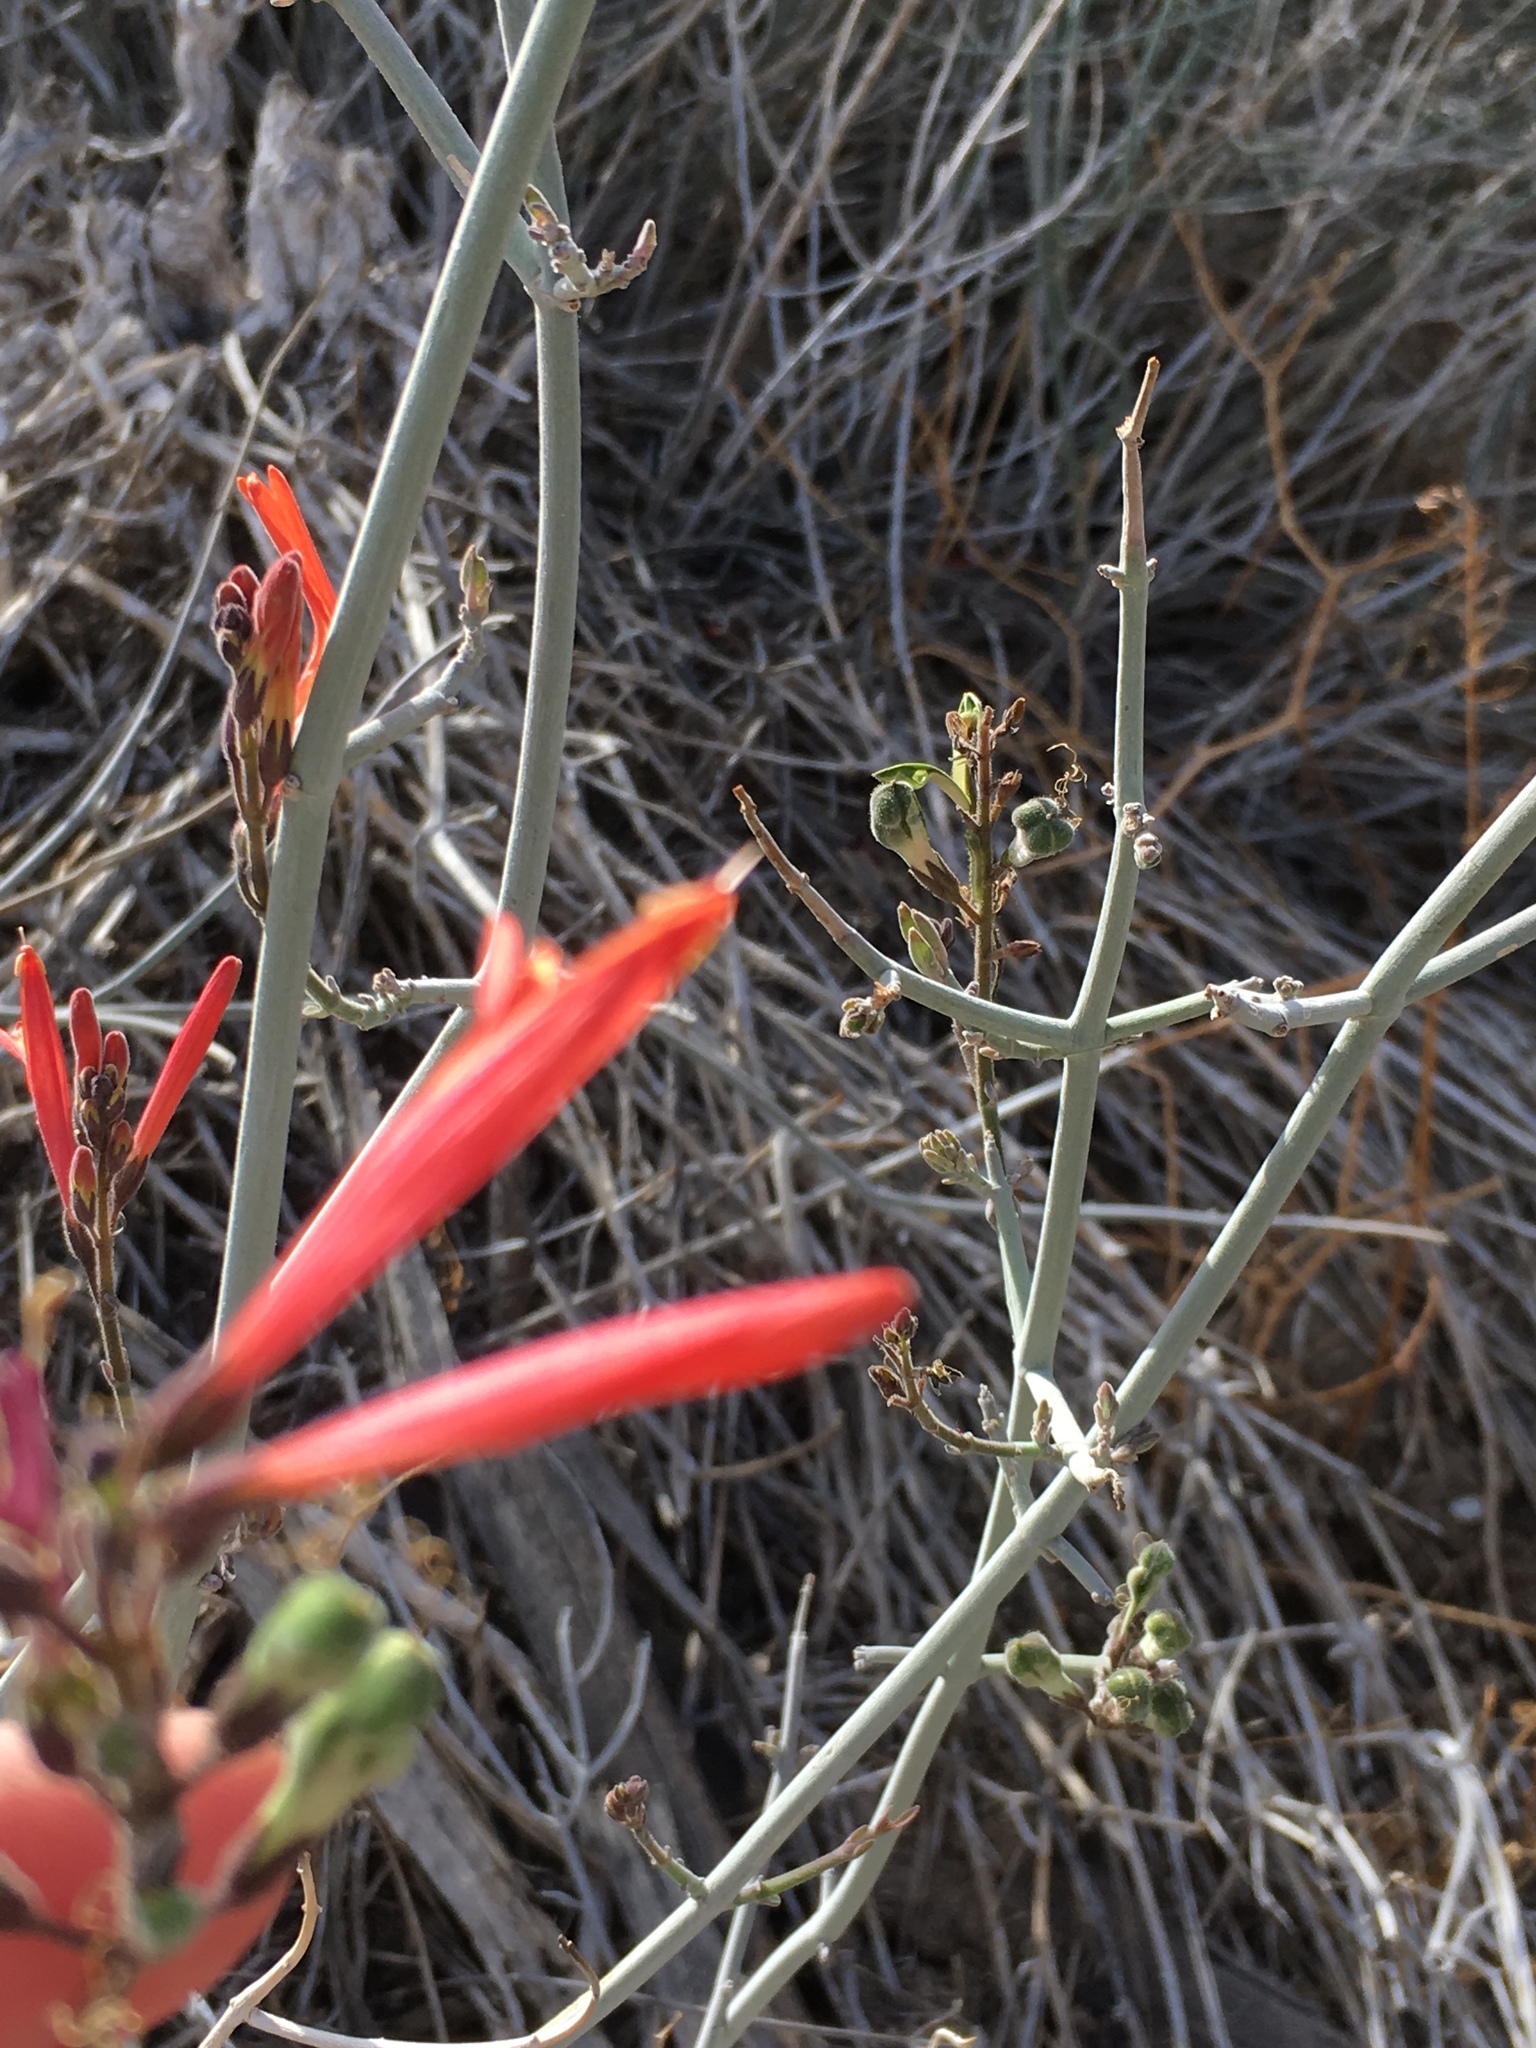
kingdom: Plantae
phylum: Tracheophyta
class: Magnoliopsida
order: Lamiales
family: Acanthaceae
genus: Justicia
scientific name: Justicia californica
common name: Chuparosa-honeysuckle
